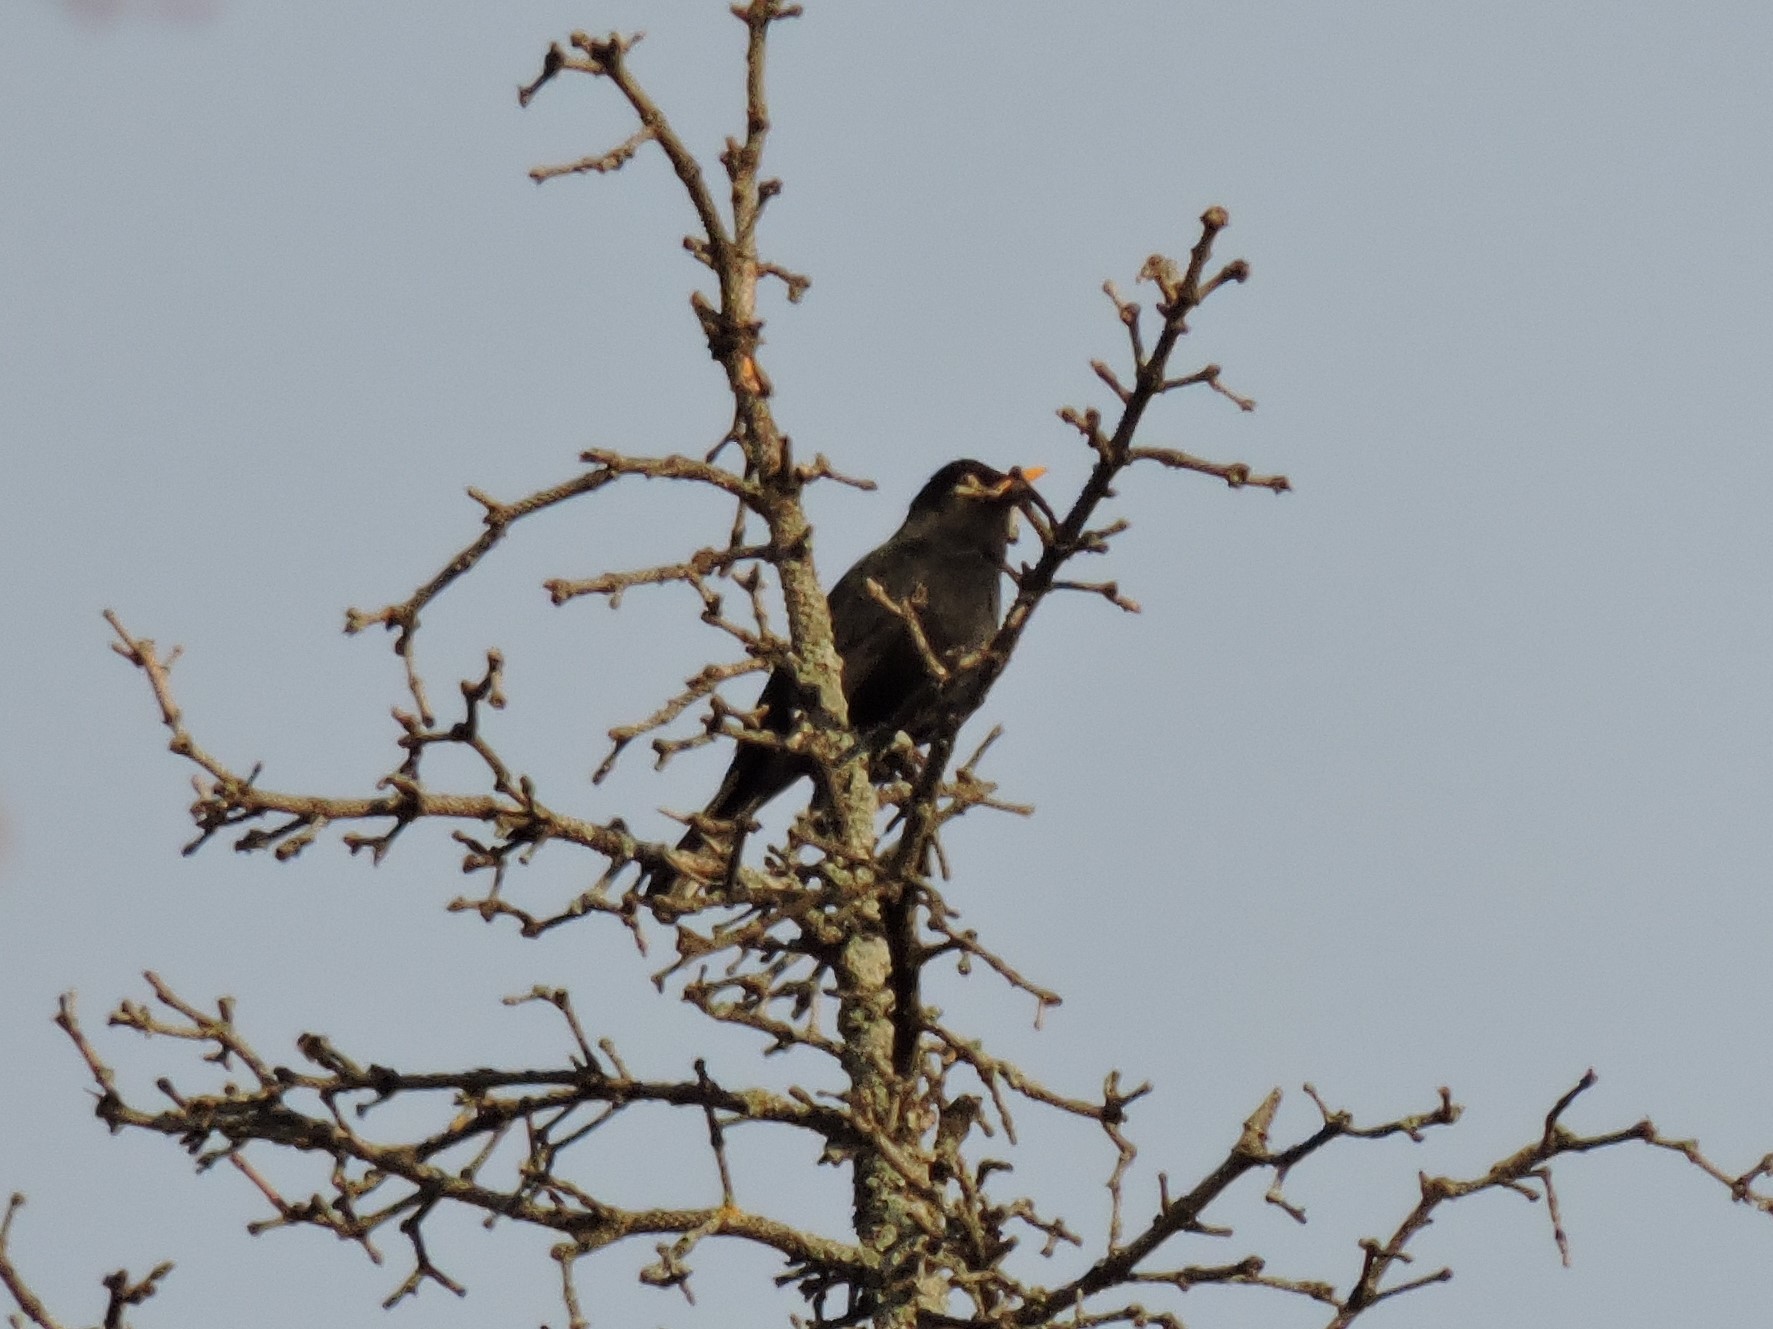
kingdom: Animalia
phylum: Chordata
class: Aves
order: Passeriformes
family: Turdidae
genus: Turdus
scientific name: Turdus merula
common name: Common blackbird
